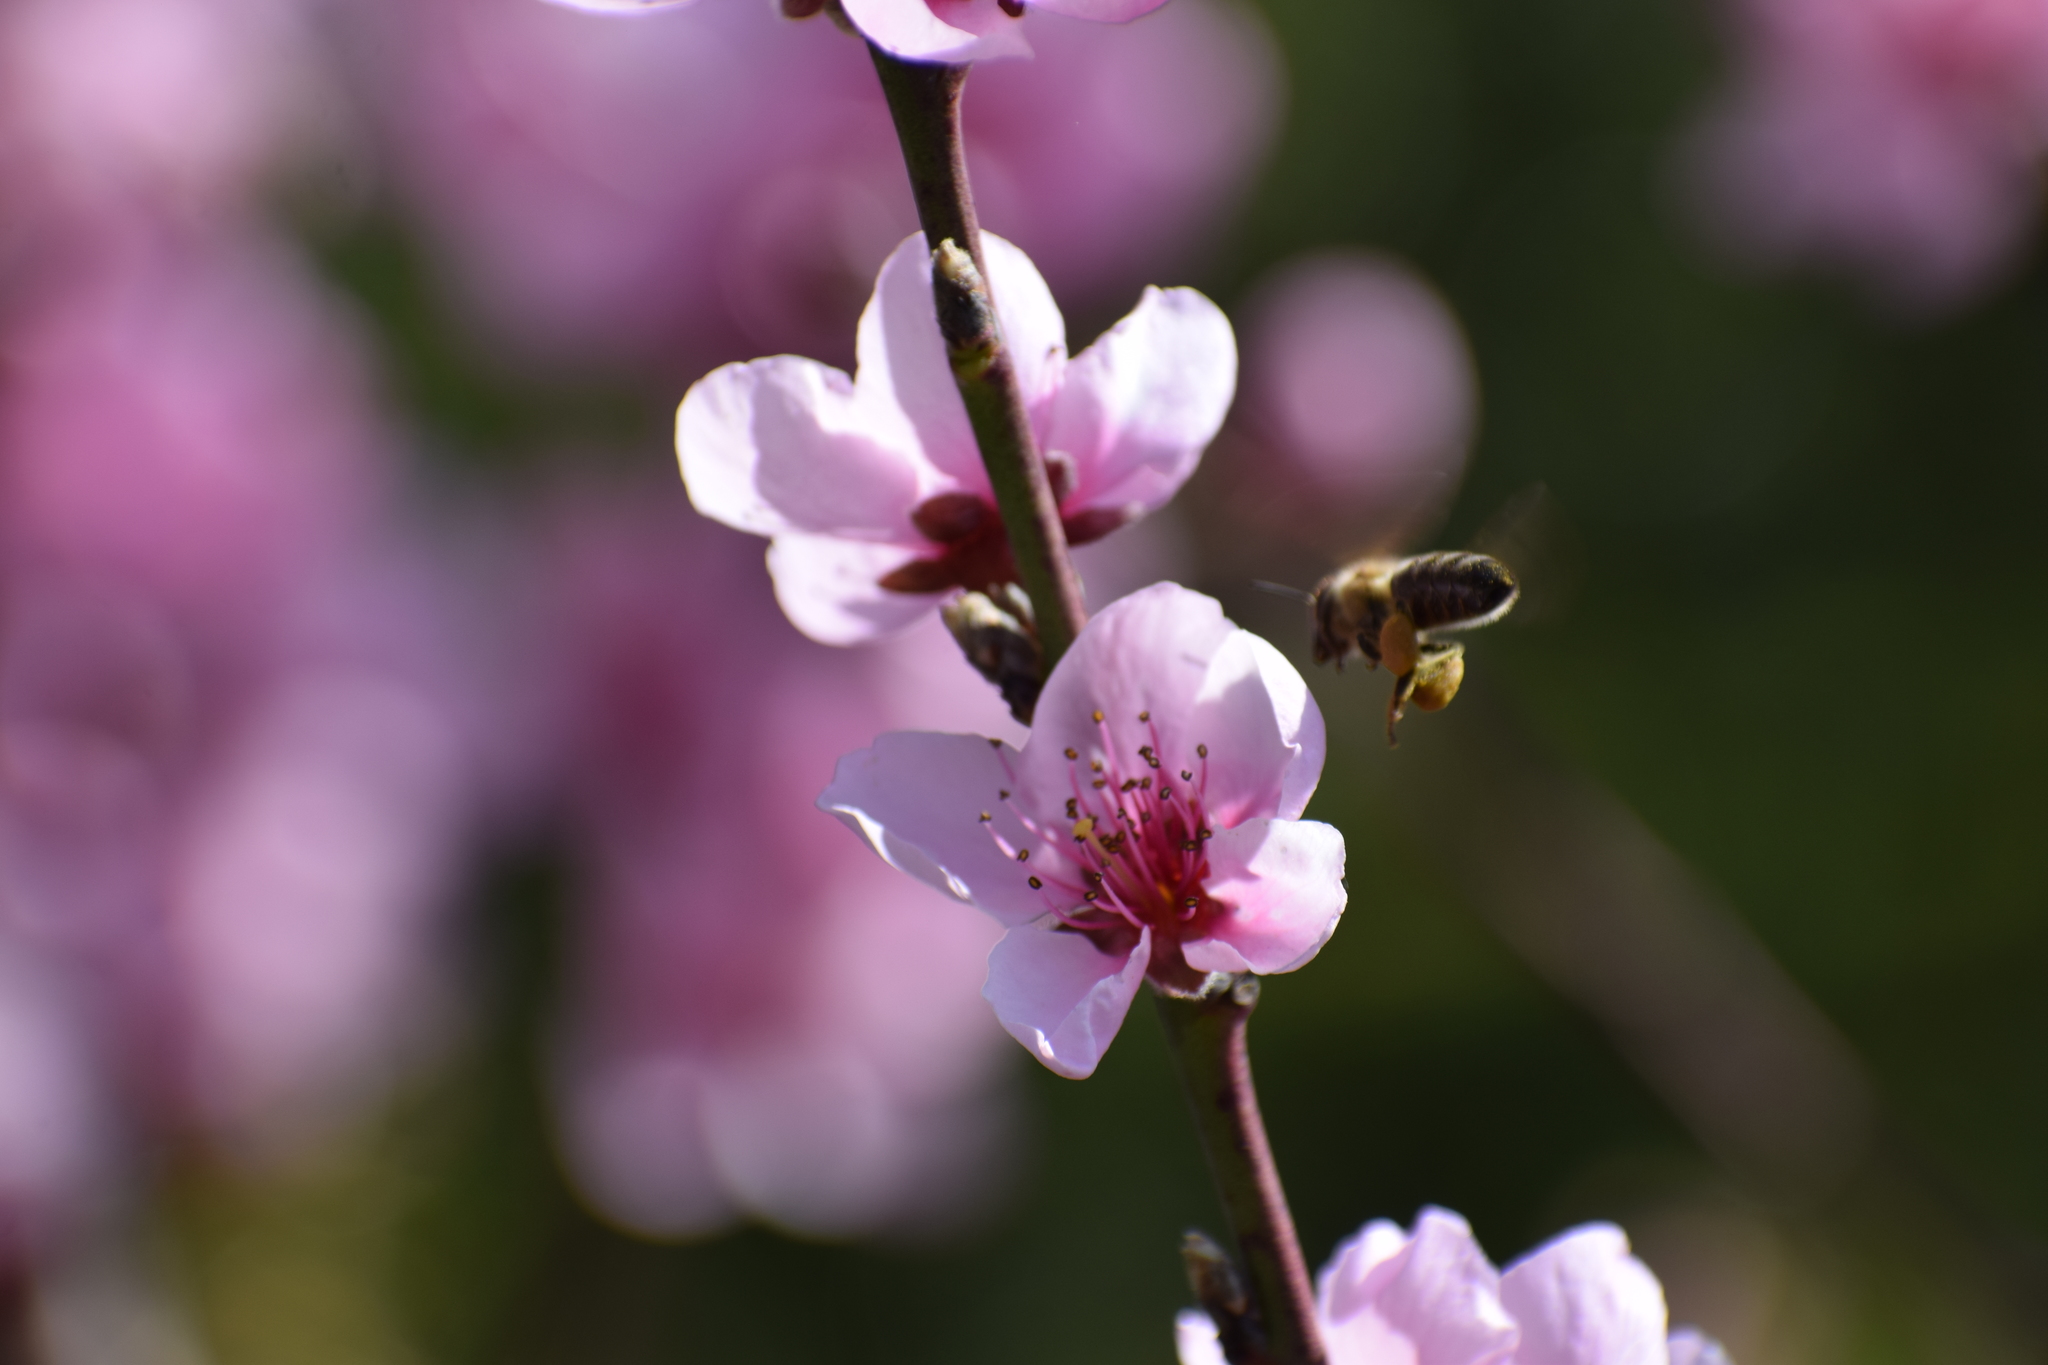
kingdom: Animalia
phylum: Arthropoda
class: Insecta
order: Hymenoptera
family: Apidae
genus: Apis
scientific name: Apis mellifera
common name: Honey bee
